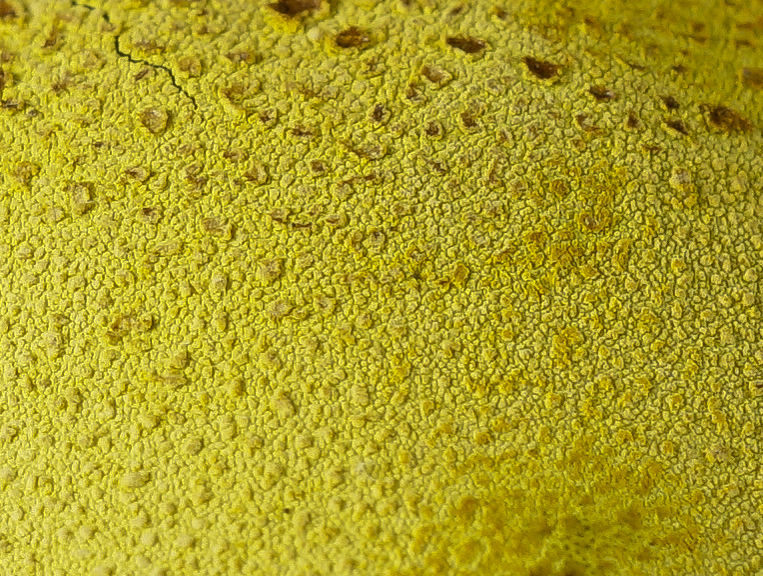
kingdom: Fungi
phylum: Ascomycota
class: Sordariomycetes
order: Xylariales
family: Hypoxylaceae
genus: Entonaema
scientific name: Entonaema liquescens
